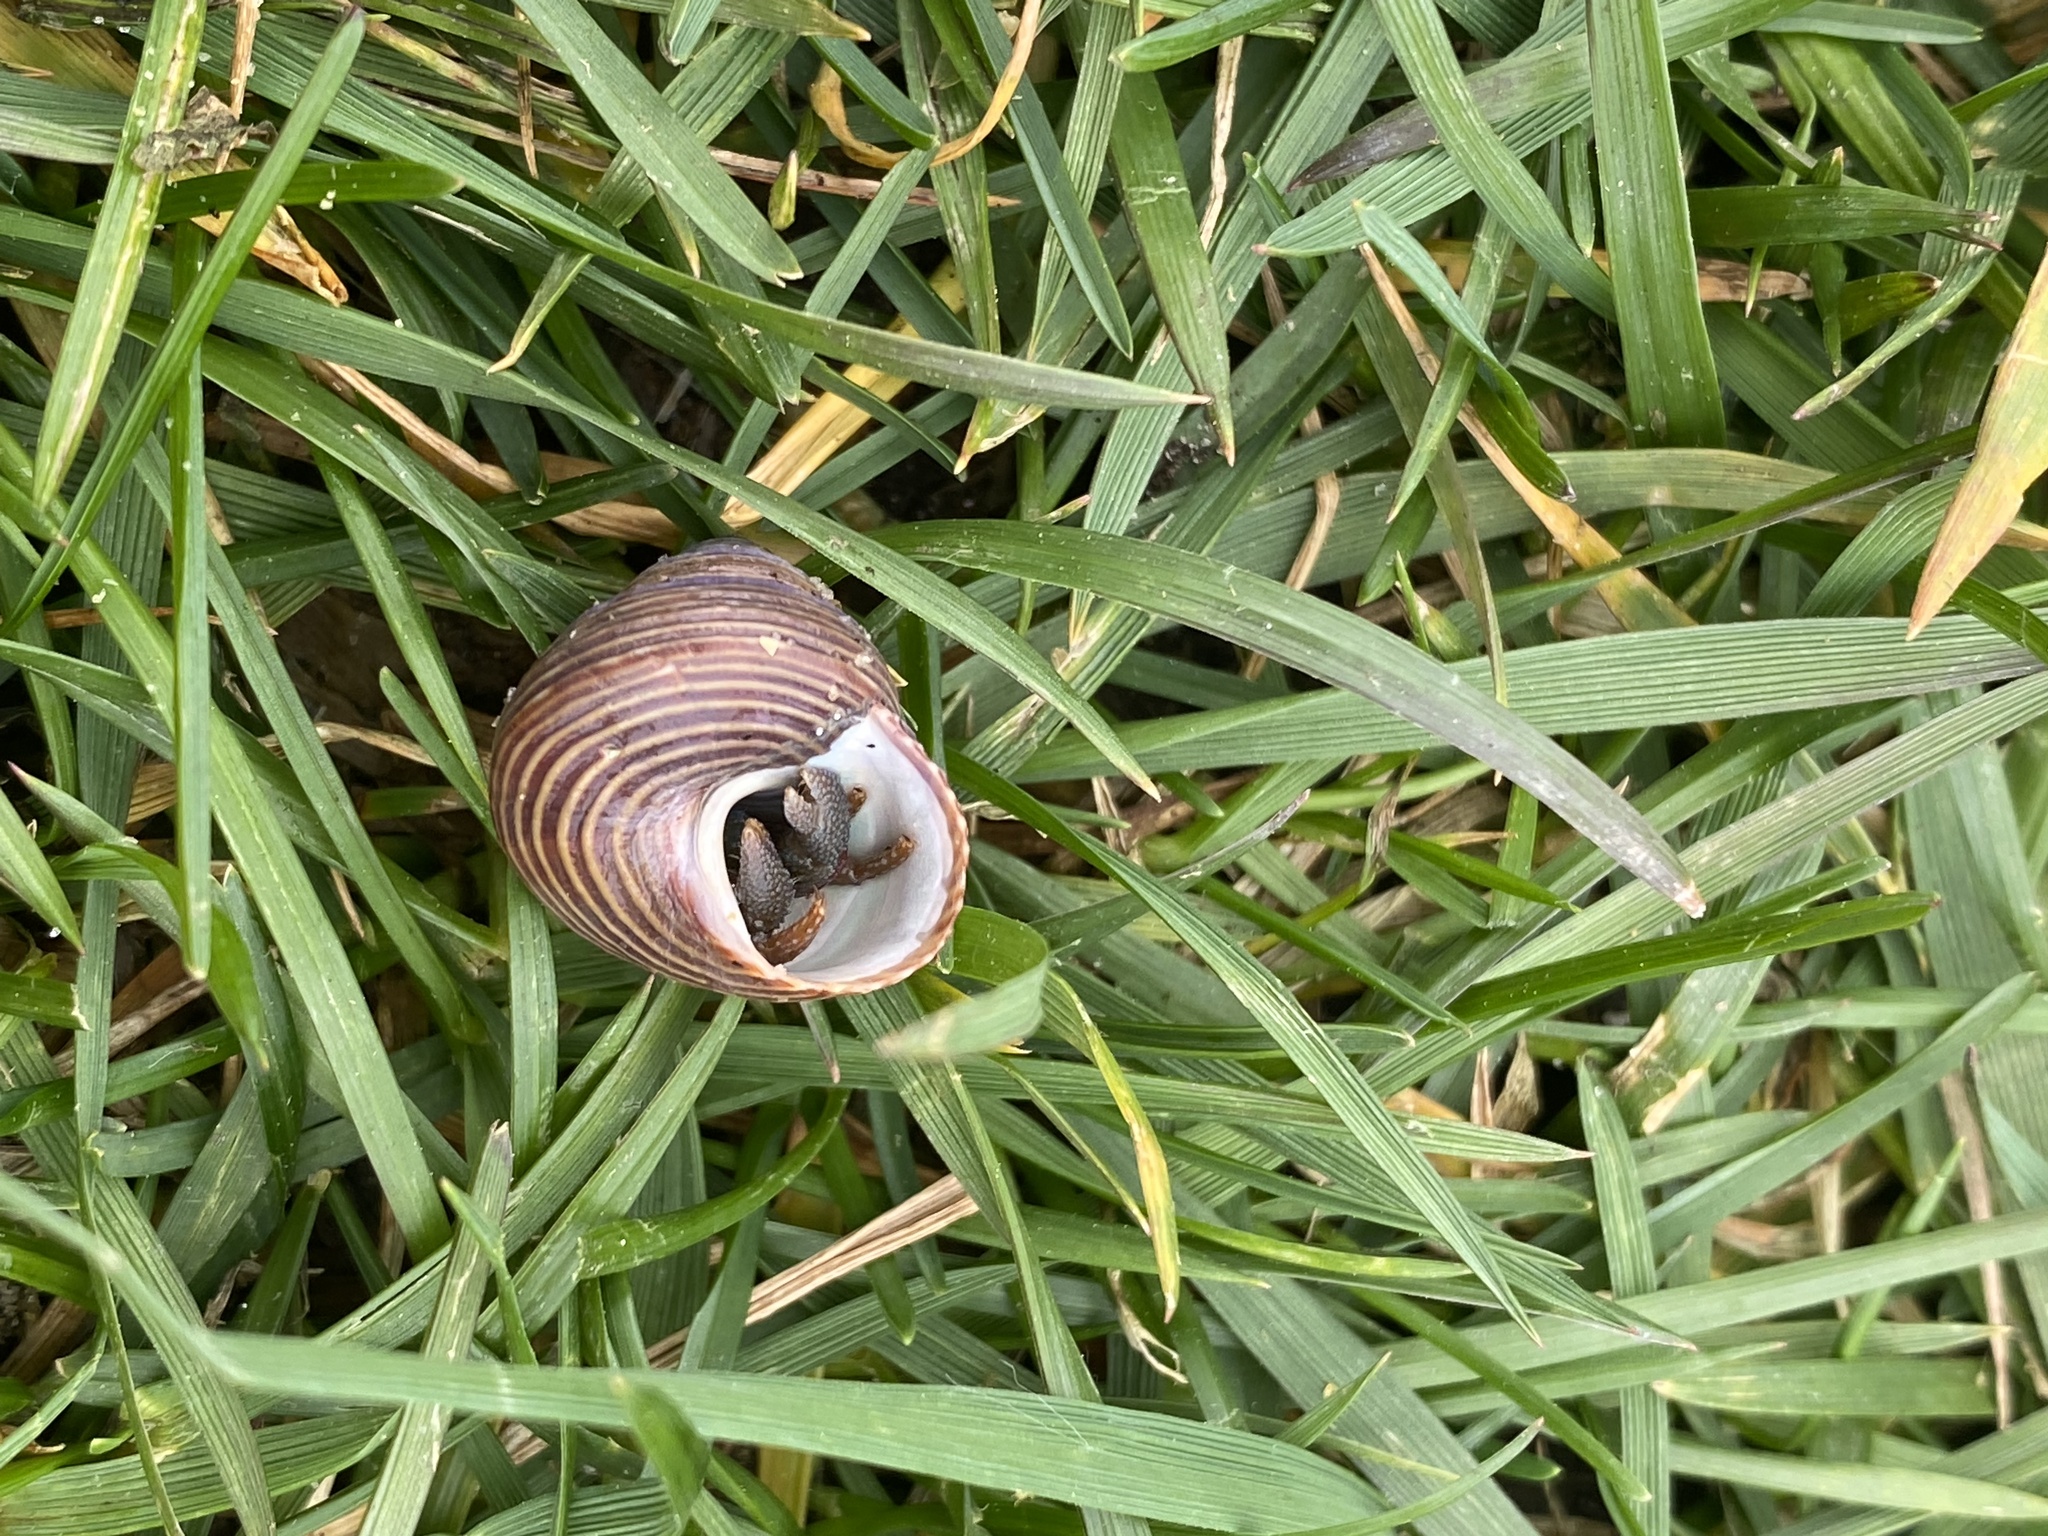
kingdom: Animalia
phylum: Mollusca
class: Gastropoda
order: Trochida
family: Calliostomatidae
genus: Calliostoma
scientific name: Calliostoma ligatum
